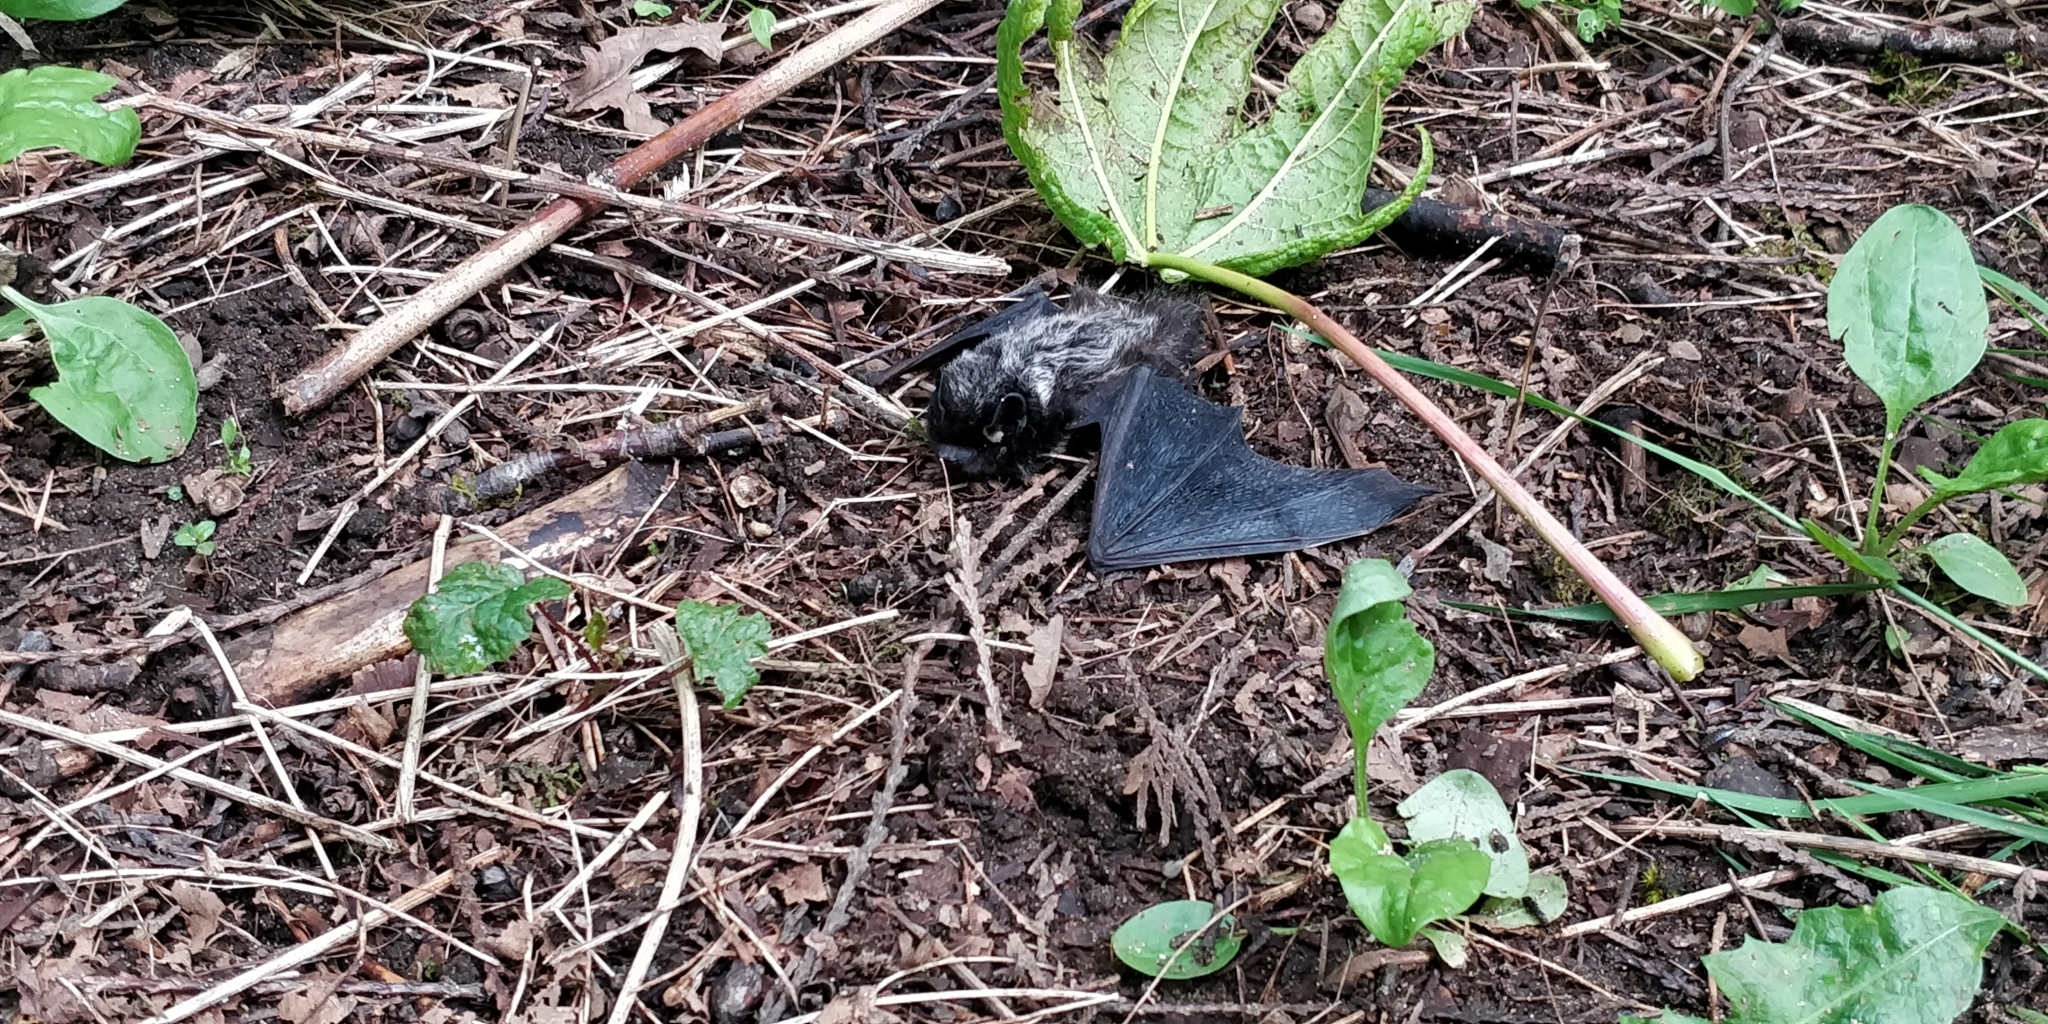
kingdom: Animalia
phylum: Chordata
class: Mammalia
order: Chiroptera
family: Vespertilionidae
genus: Lasionycteris
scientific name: Lasionycteris noctivagans
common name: Silver-haired bat
